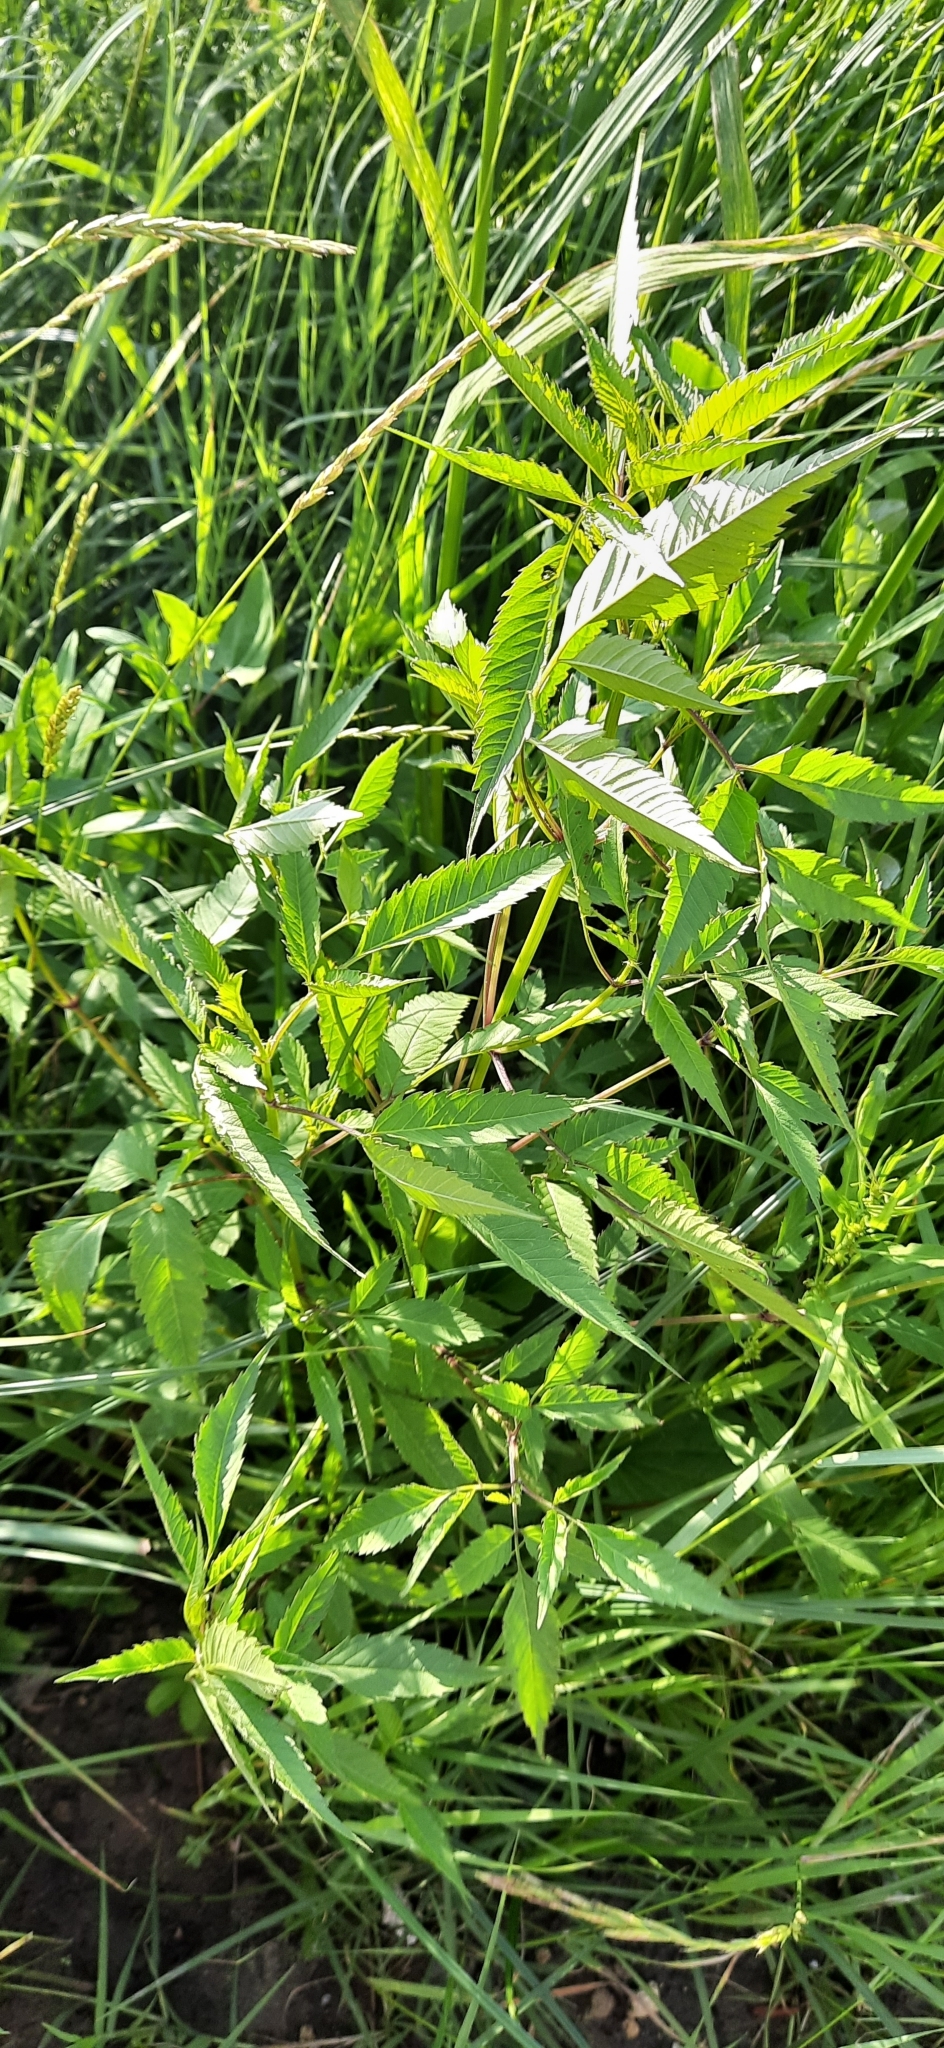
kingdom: Plantae
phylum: Tracheophyta
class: Magnoliopsida
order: Asterales
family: Asteraceae
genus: Bidens
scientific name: Bidens frondosa
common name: Beggarticks
